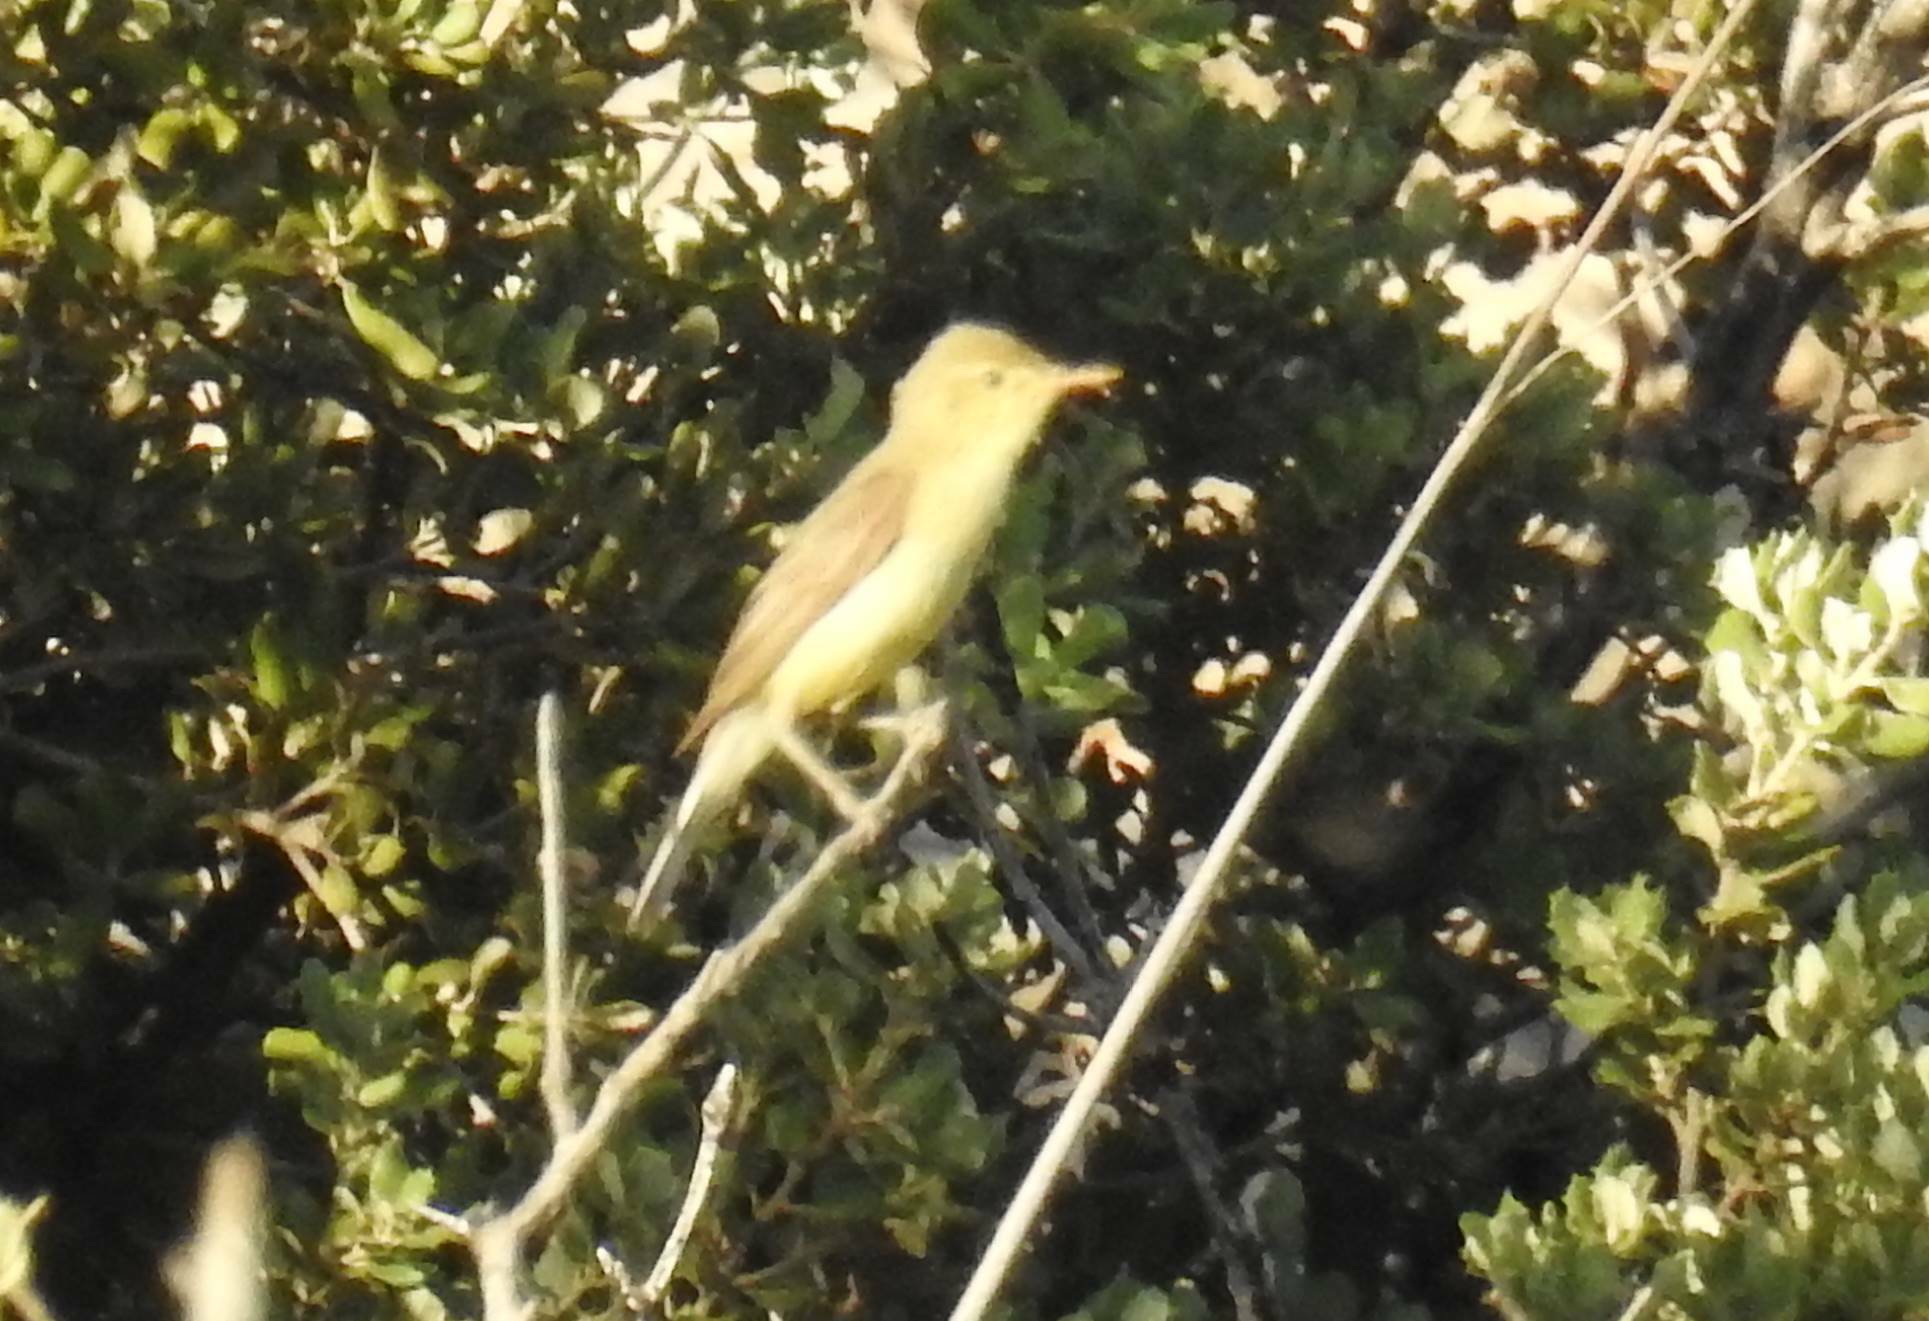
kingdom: Animalia
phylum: Chordata
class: Aves
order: Passeriformes
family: Acrocephalidae
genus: Hippolais
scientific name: Hippolais polyglotta
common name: Melodious warbler
